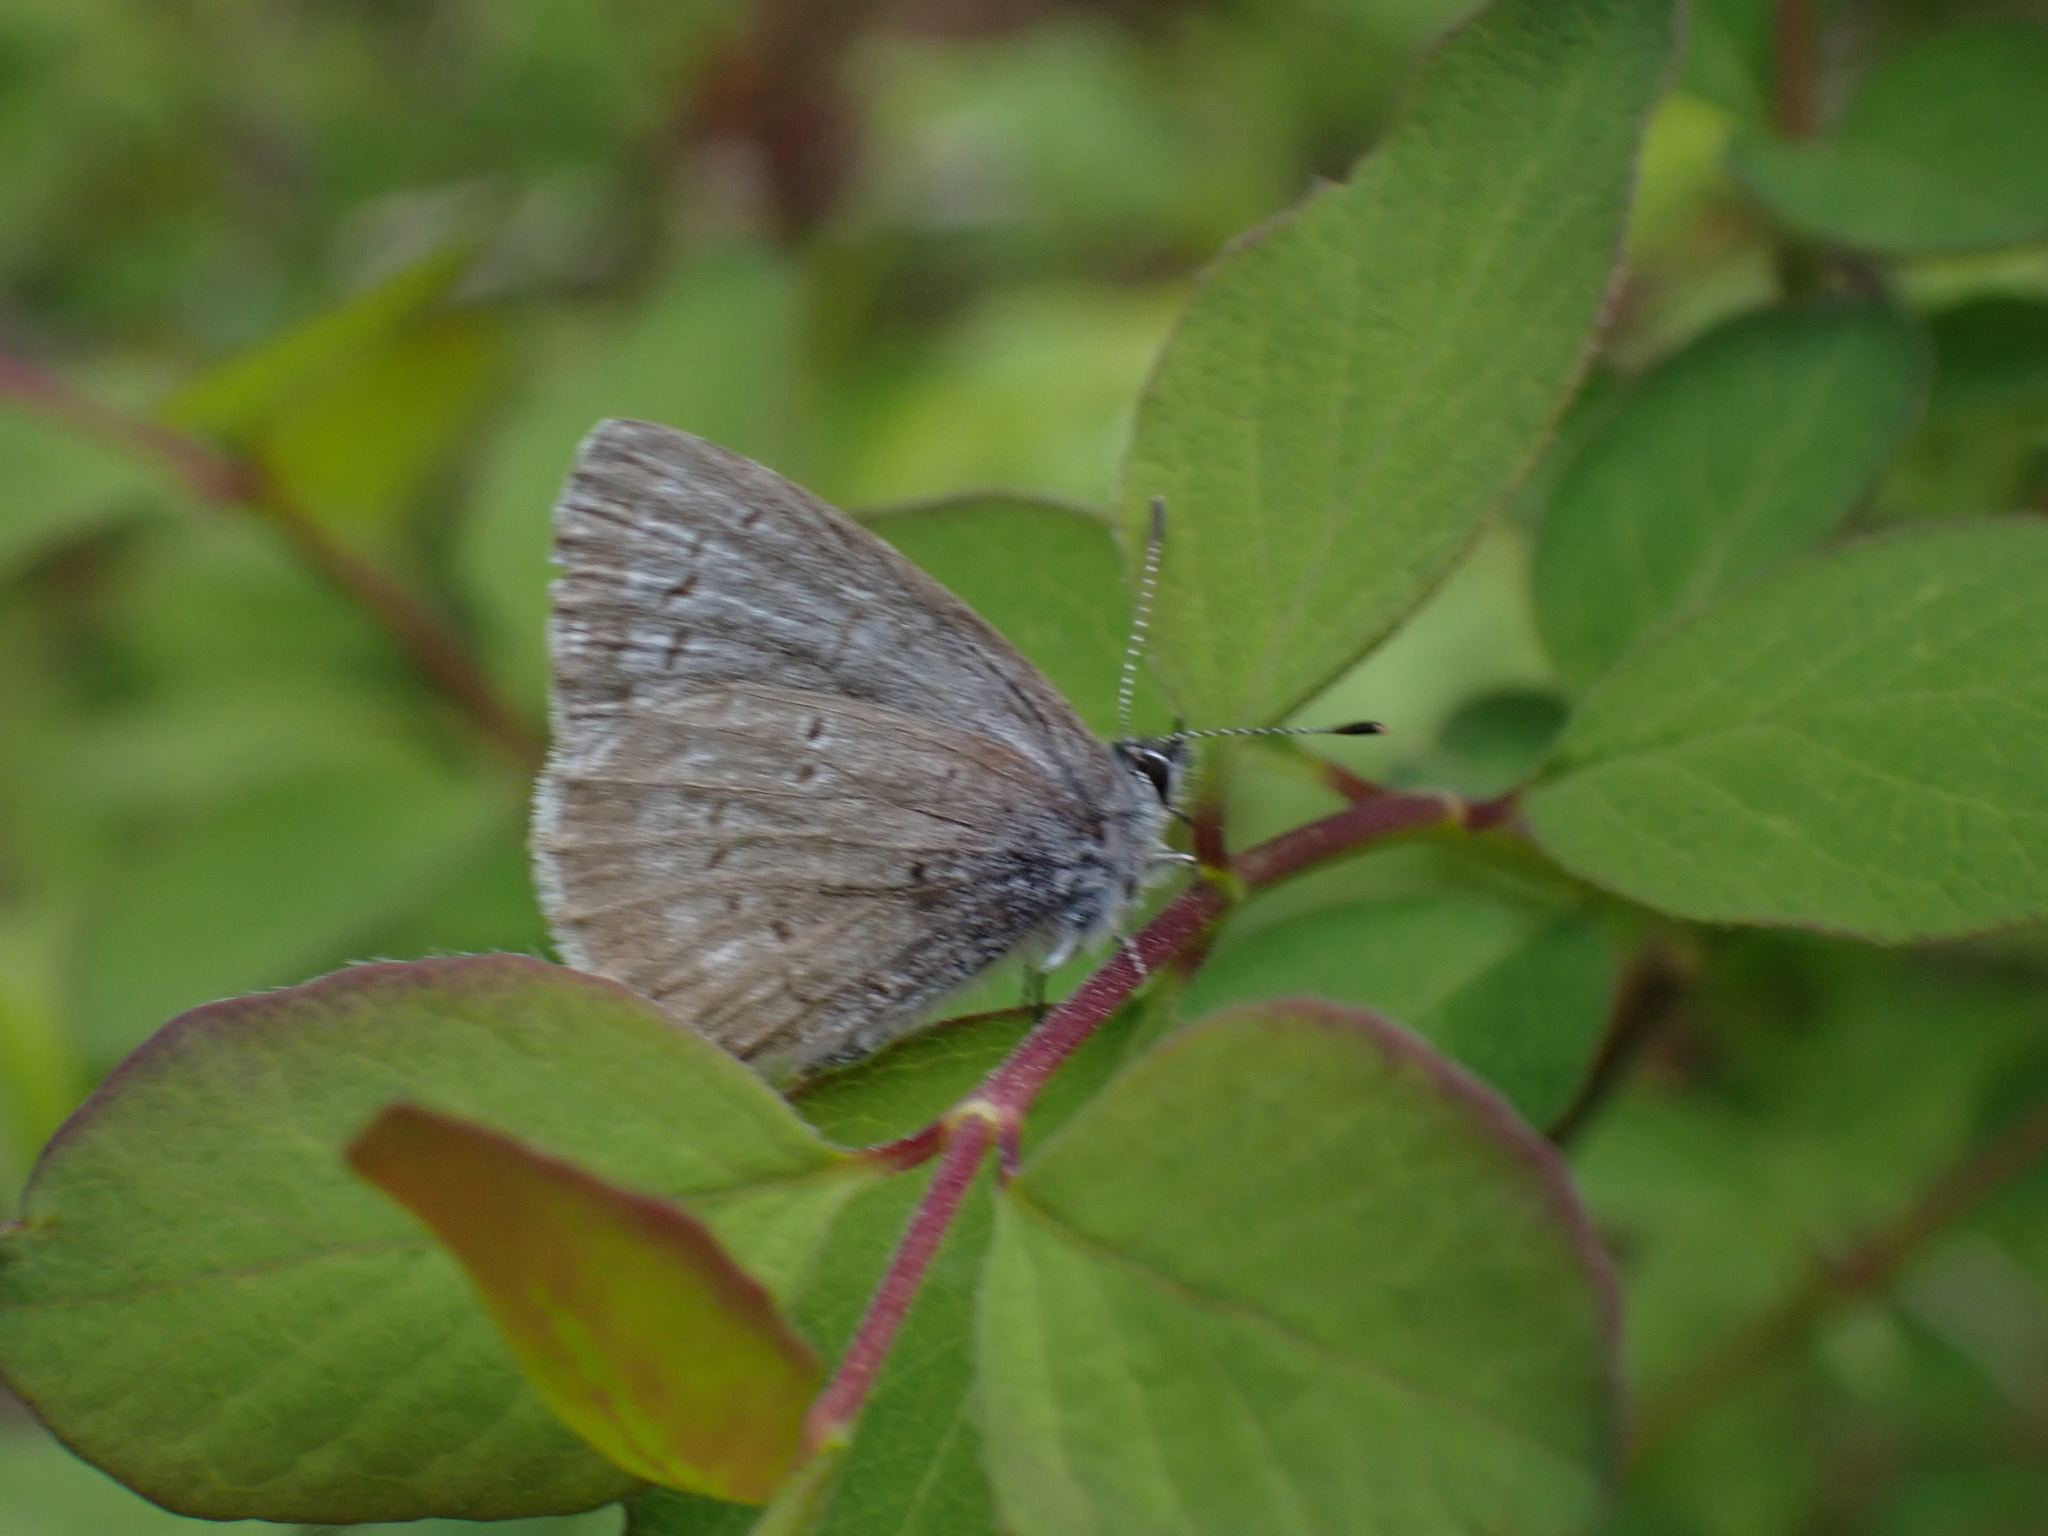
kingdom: Animalia
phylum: Arthropoda
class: Insecta
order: Lepidoptera
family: Lycaenidae
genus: Celastrina
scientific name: Celastrina asheri
